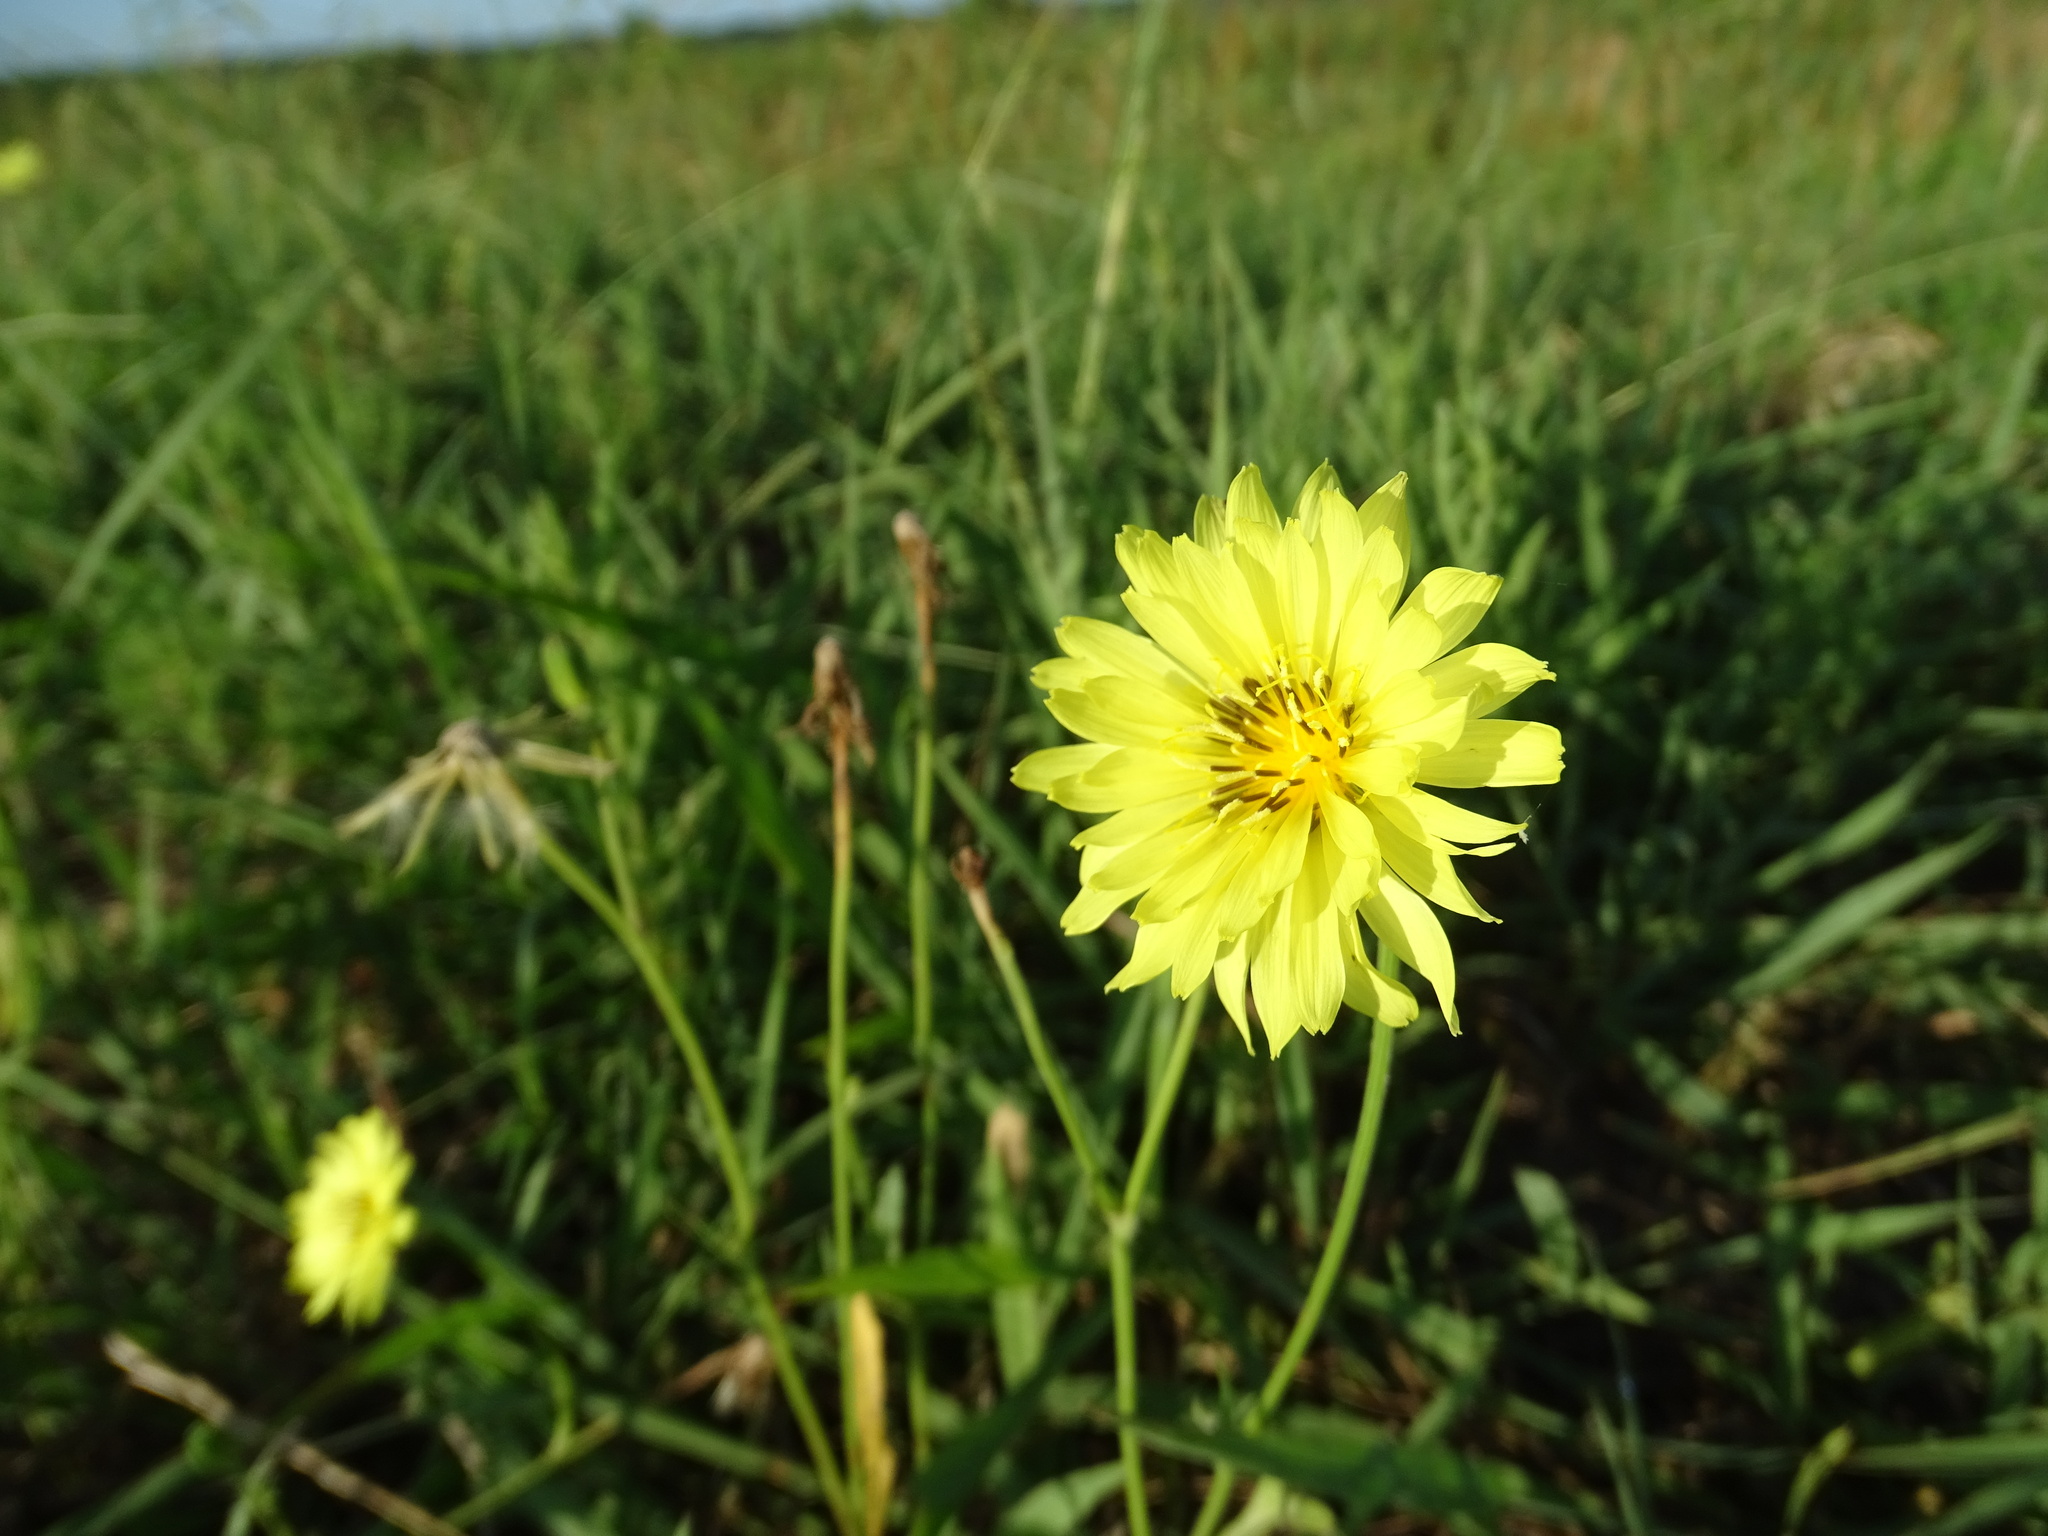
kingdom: Plantae
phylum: Tracheophyta
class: Magnoliopsida
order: Asterales
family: Asteraceae
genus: Pyrrhopappus
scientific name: Pyrrhopappus pauciflorus
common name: Texas false dandelion
